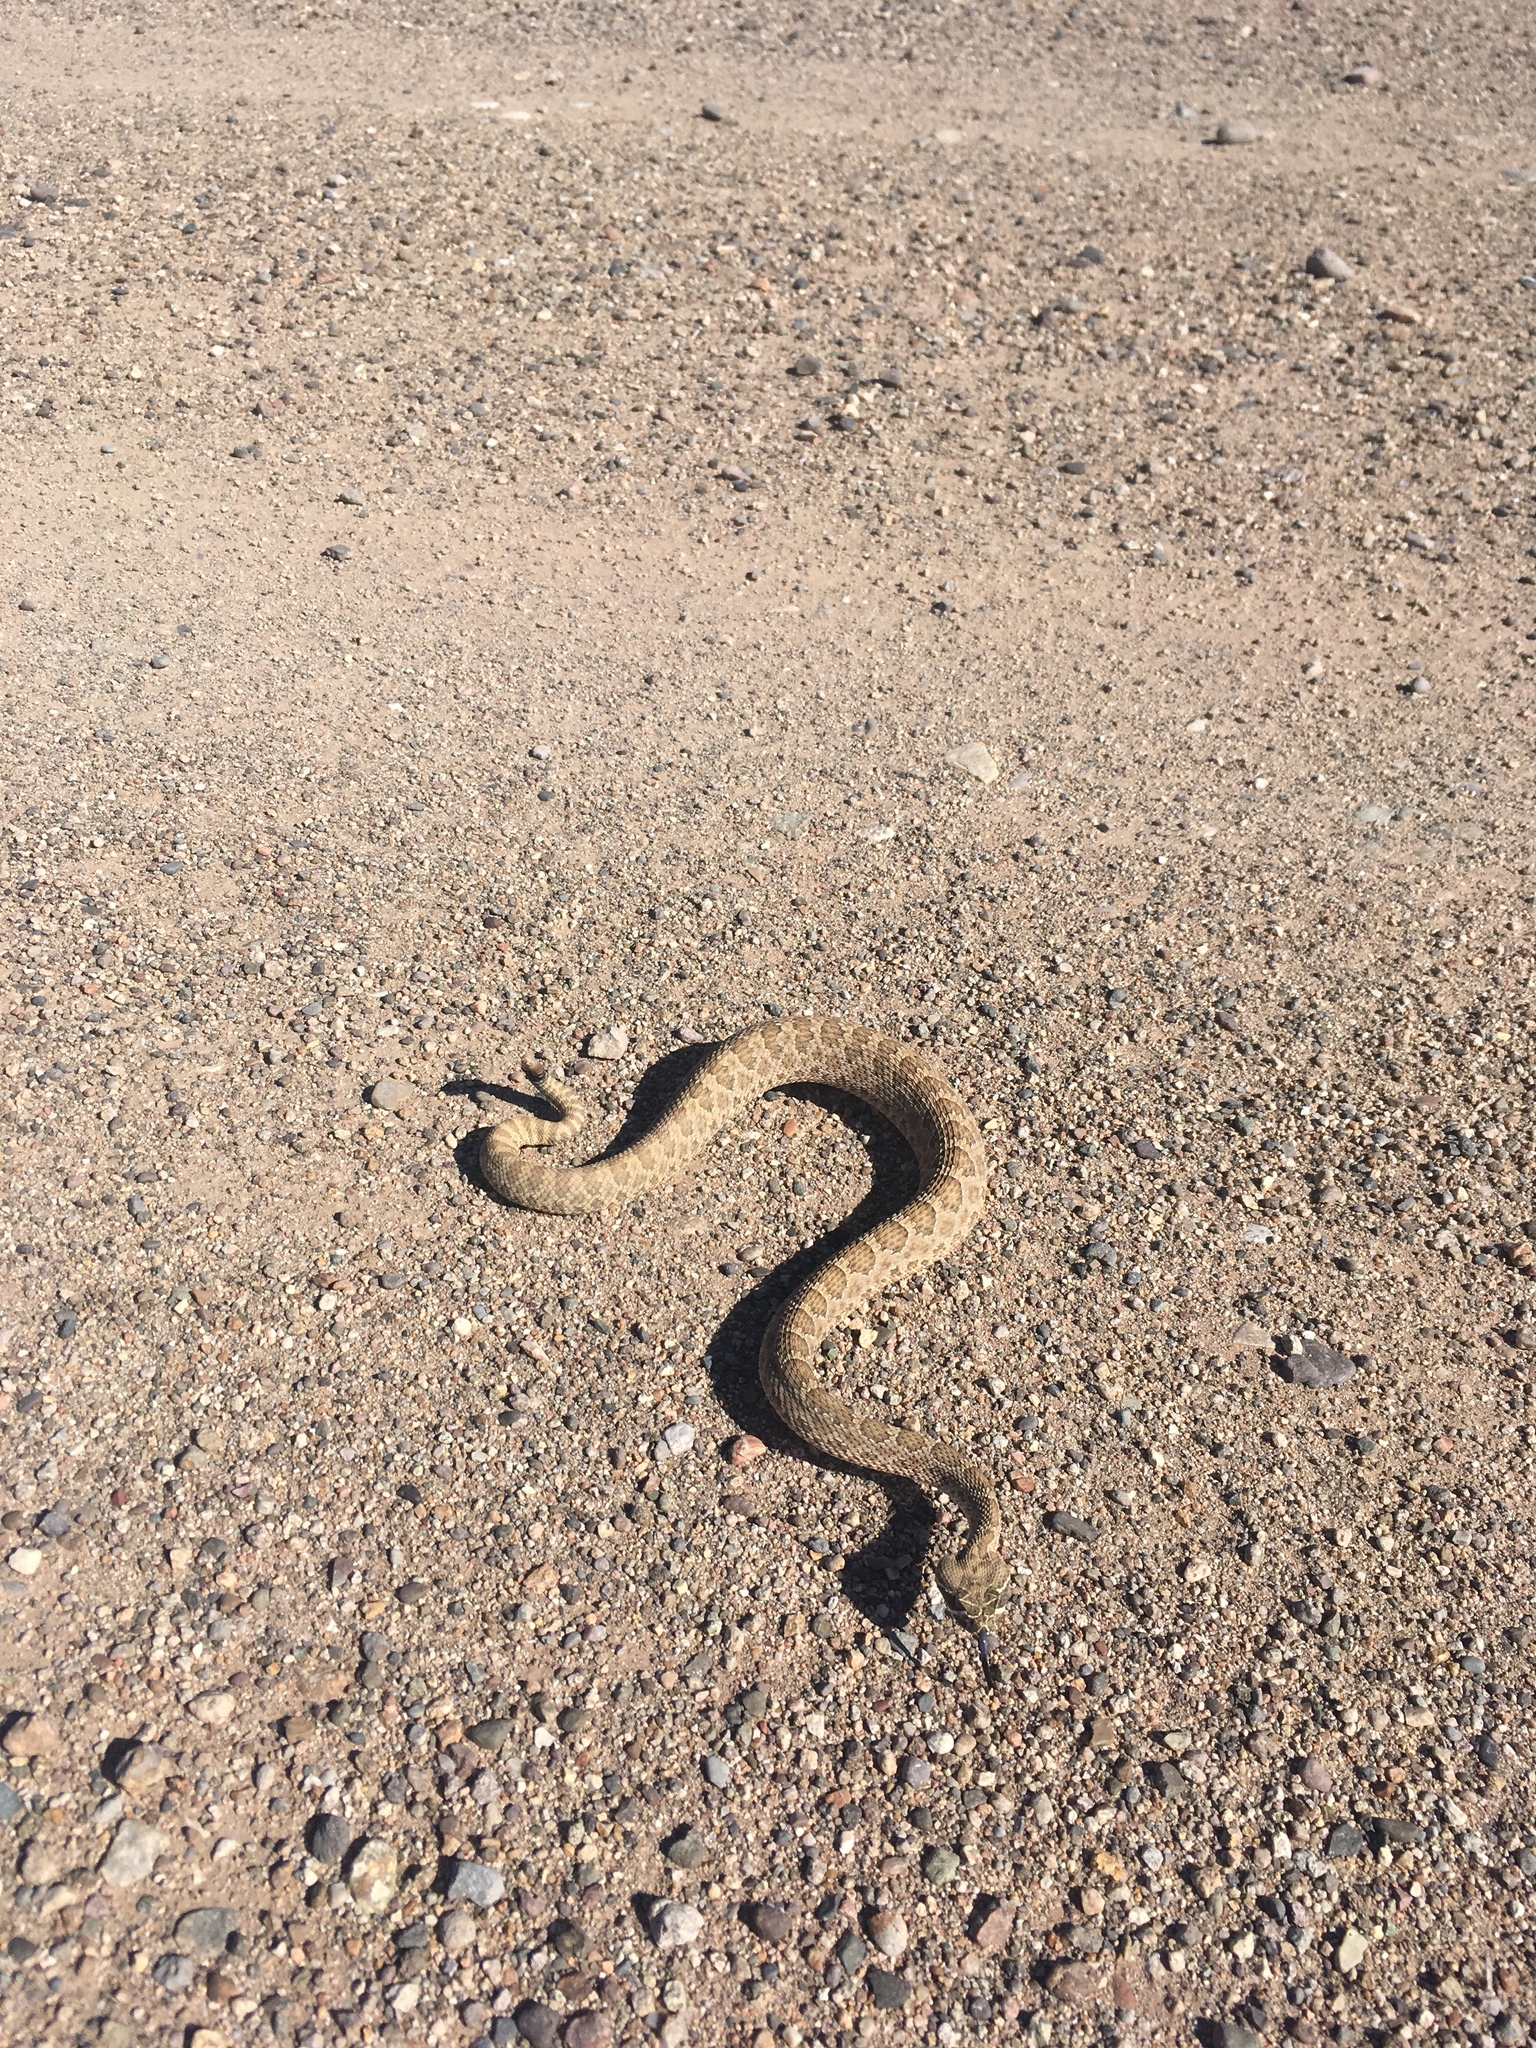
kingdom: Animalia
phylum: Chordata
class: Squamata
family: Viperidae
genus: Crotalus
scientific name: Crotalus viridis
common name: Prairie rattlesnake
